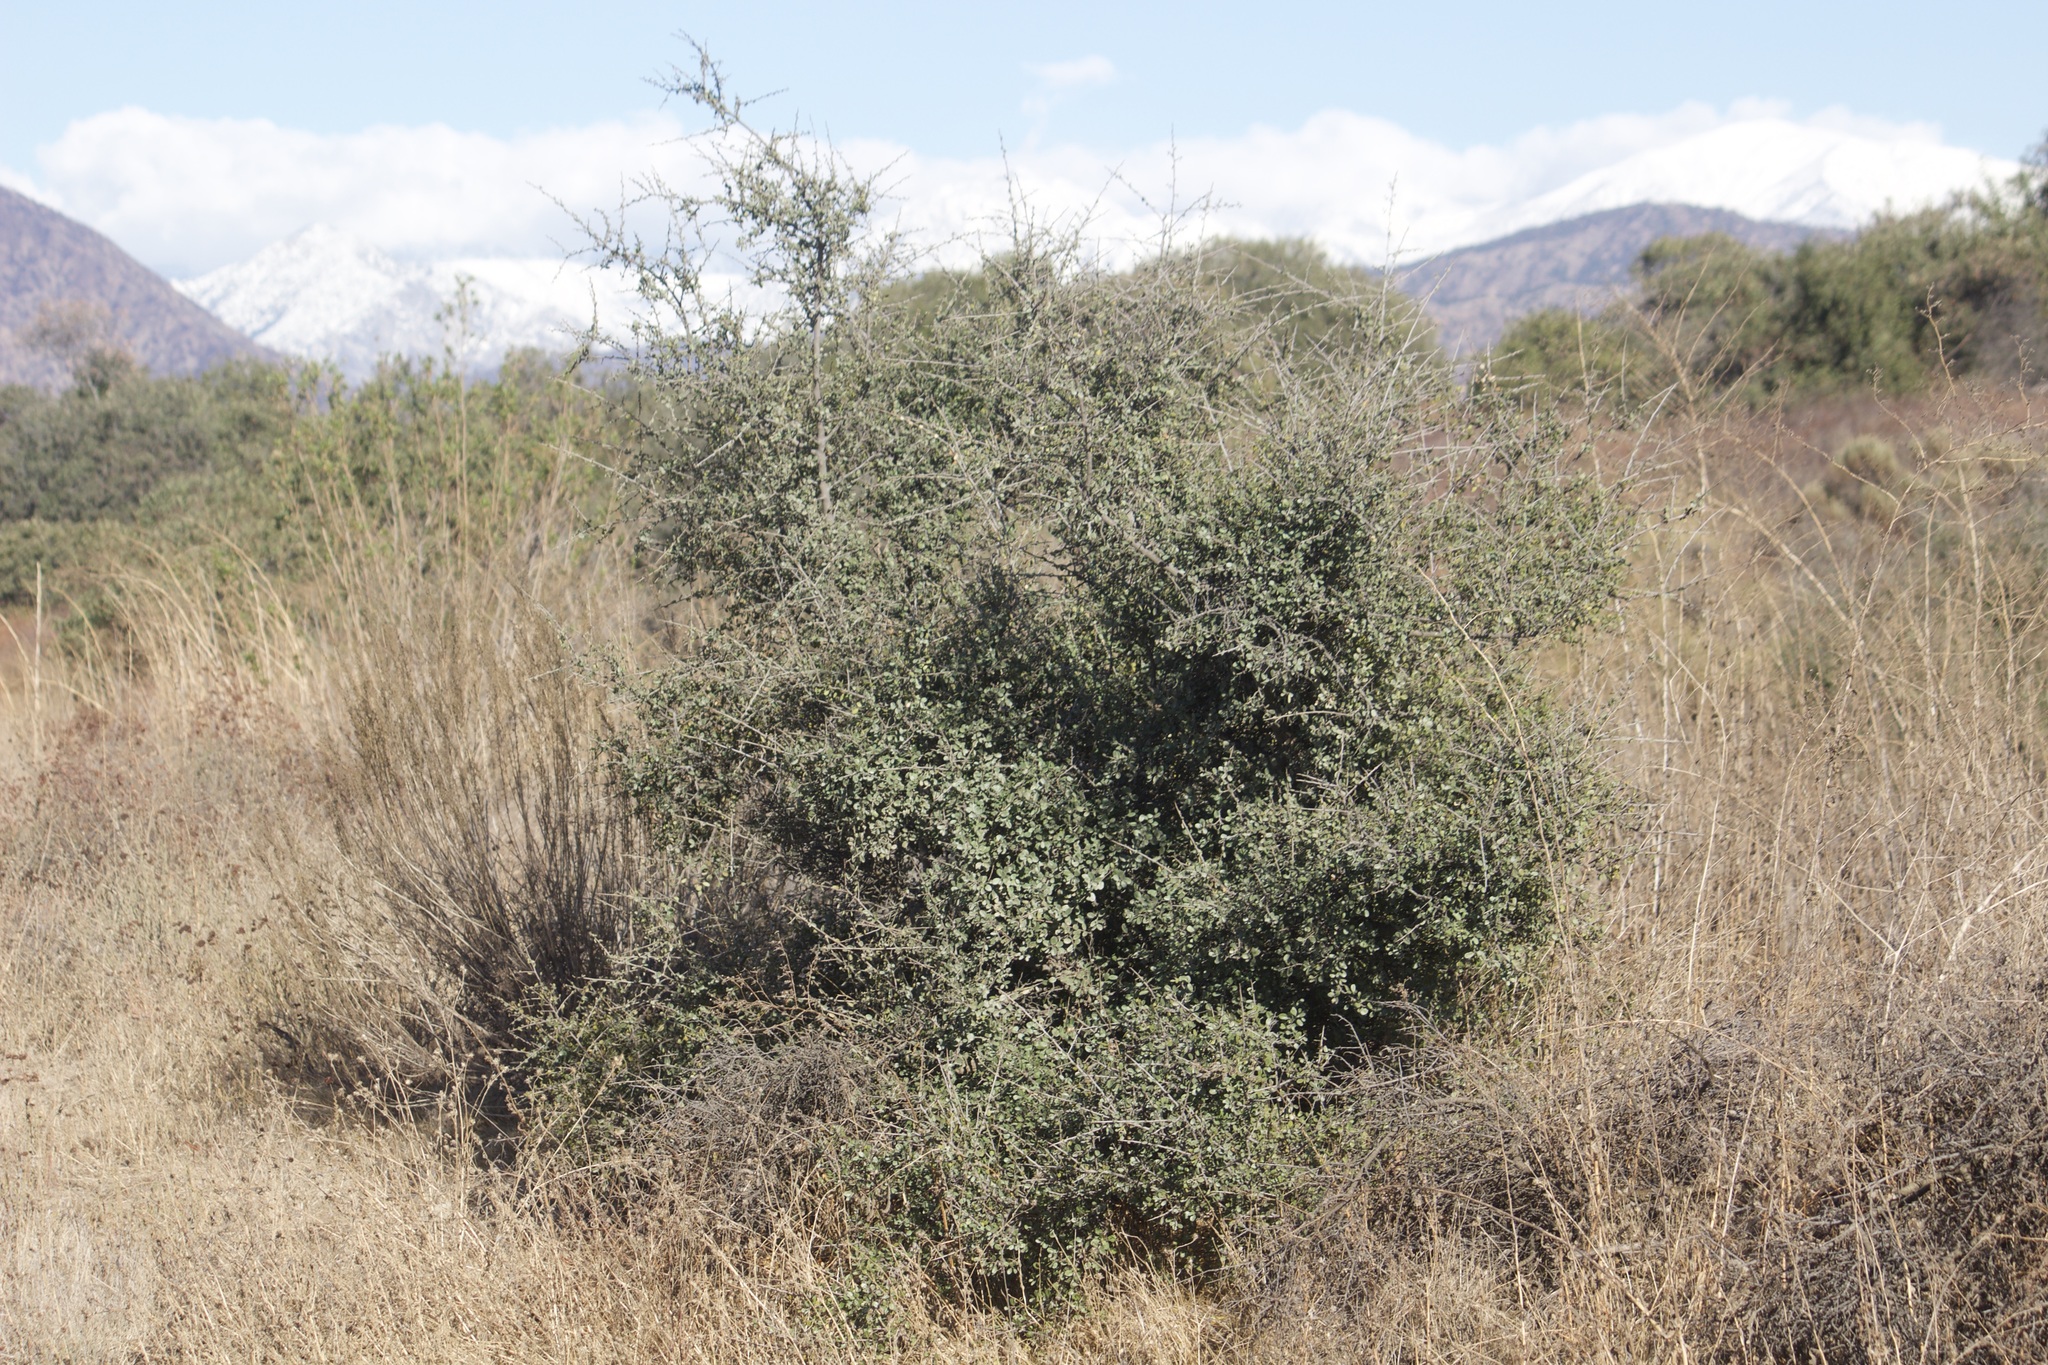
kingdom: Plantae
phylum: Tracheophyta
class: Magnoliopsida
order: Rosales
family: Rhamnaceae
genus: Endotropis
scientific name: Endotropis crocea
